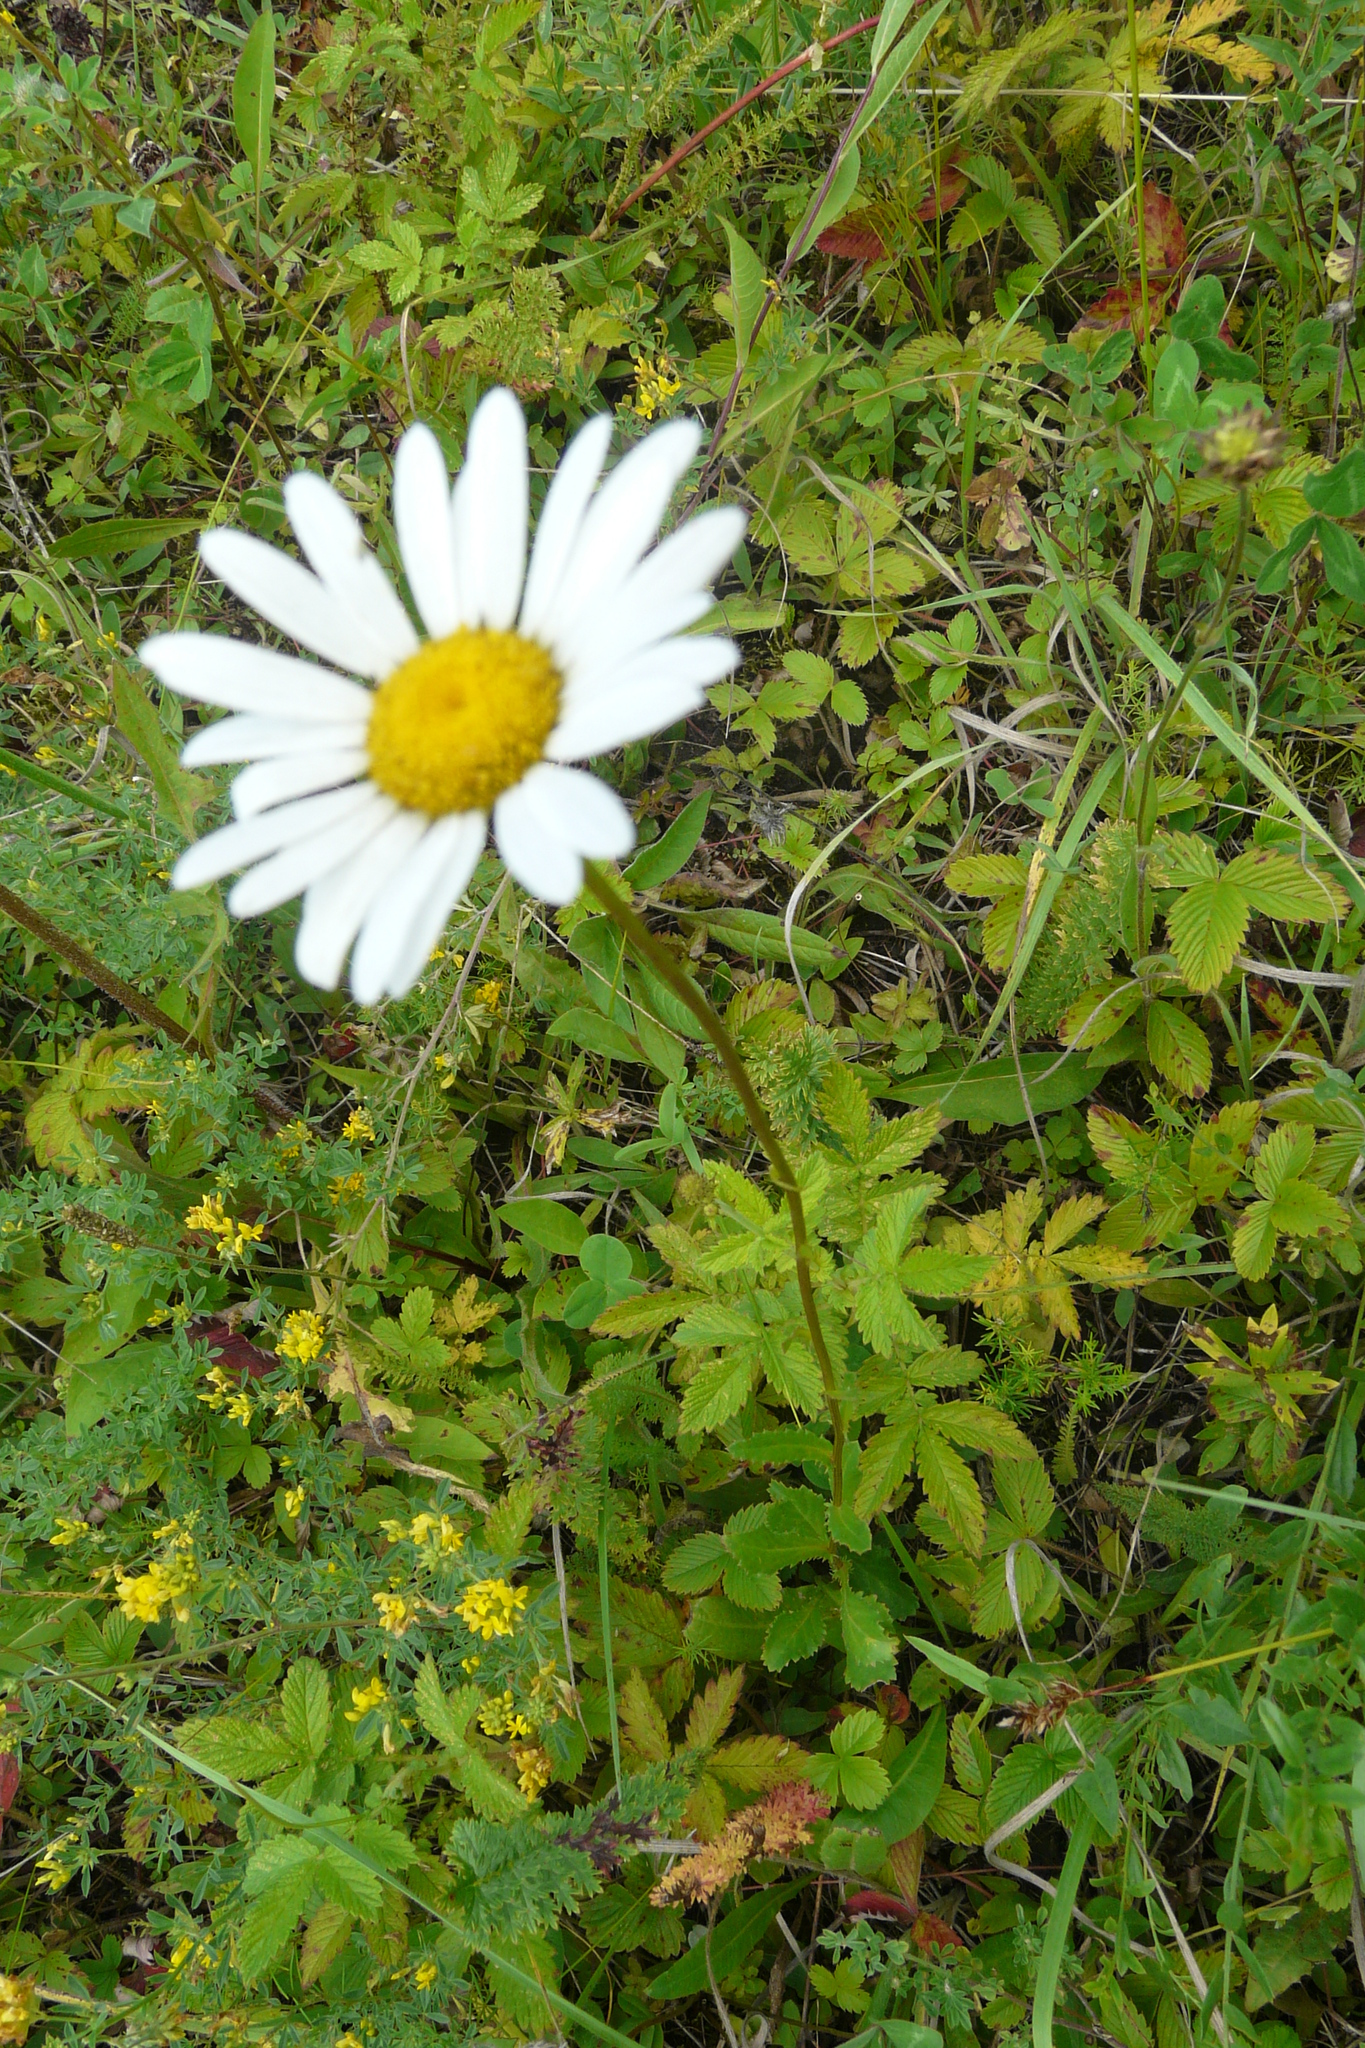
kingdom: Plantae
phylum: Tracheophyta
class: Magnoliopsida
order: Asterales
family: Asteraceae
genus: Leucanthemum
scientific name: Leucanthemum vulgare
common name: Oxeye daisy
